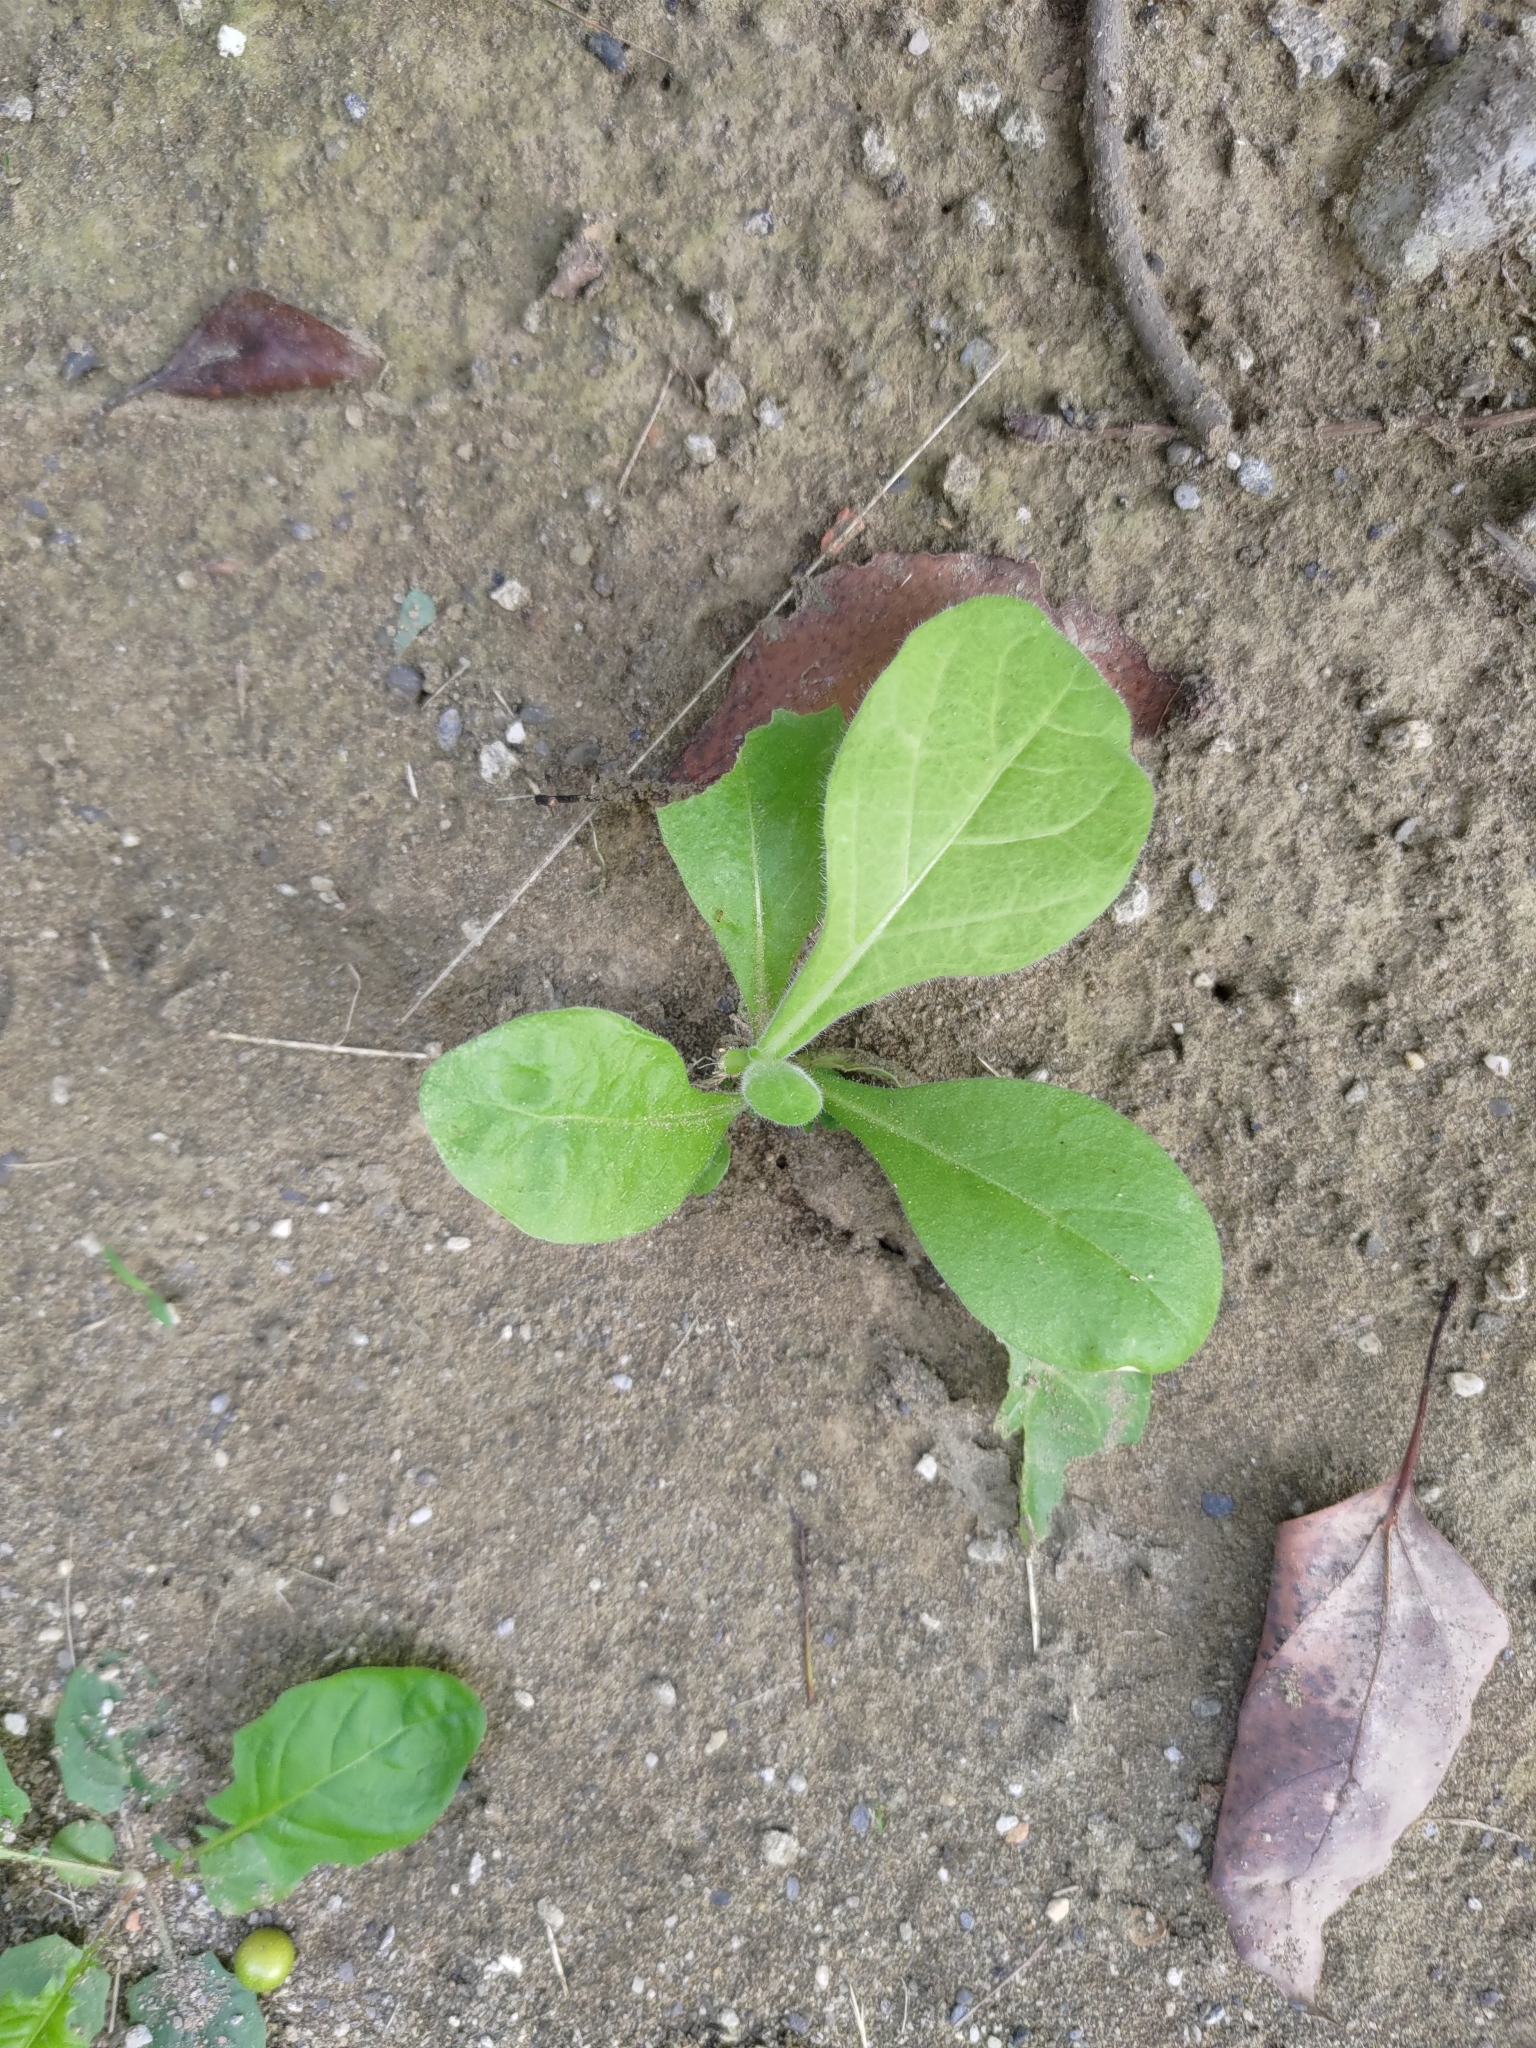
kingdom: Plantae
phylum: Tracheophyta
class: Magnoliopsida
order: Solanales
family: Solanaceae
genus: Nicotiana
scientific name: Nicotiana plumbaginifolia
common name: Tex-mex tobacco
